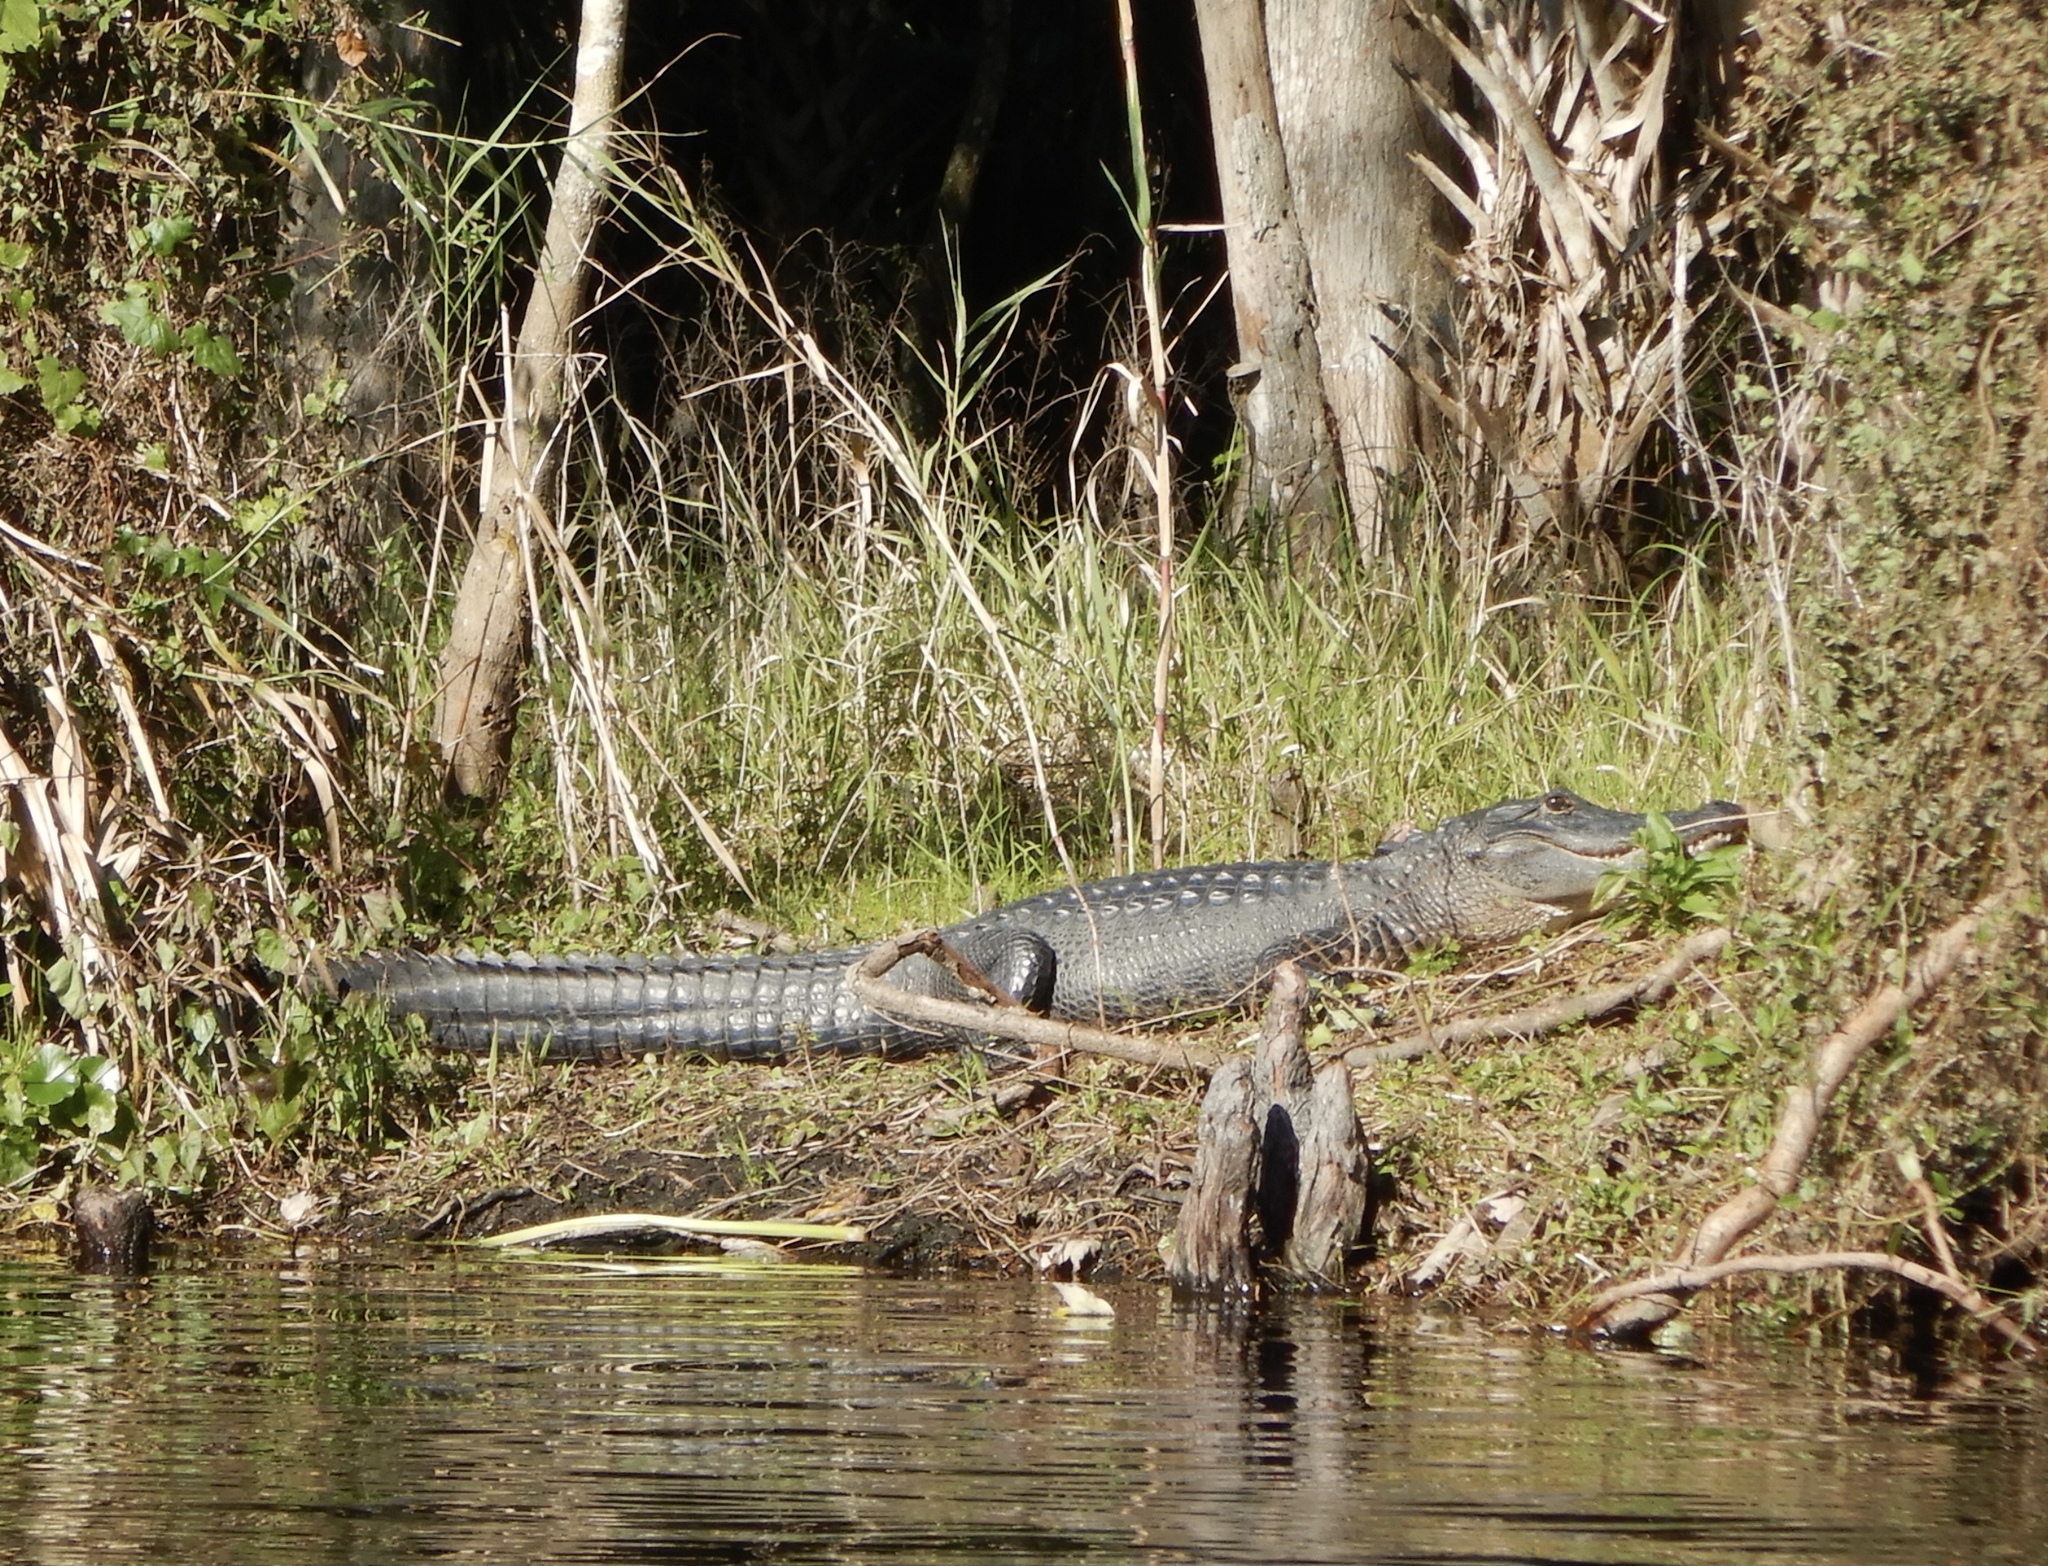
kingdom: Animalia
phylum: Chordata
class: Crocodylia
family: Alligatoridae
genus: Alligator
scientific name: Alligator mississippiensis
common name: American alligator
